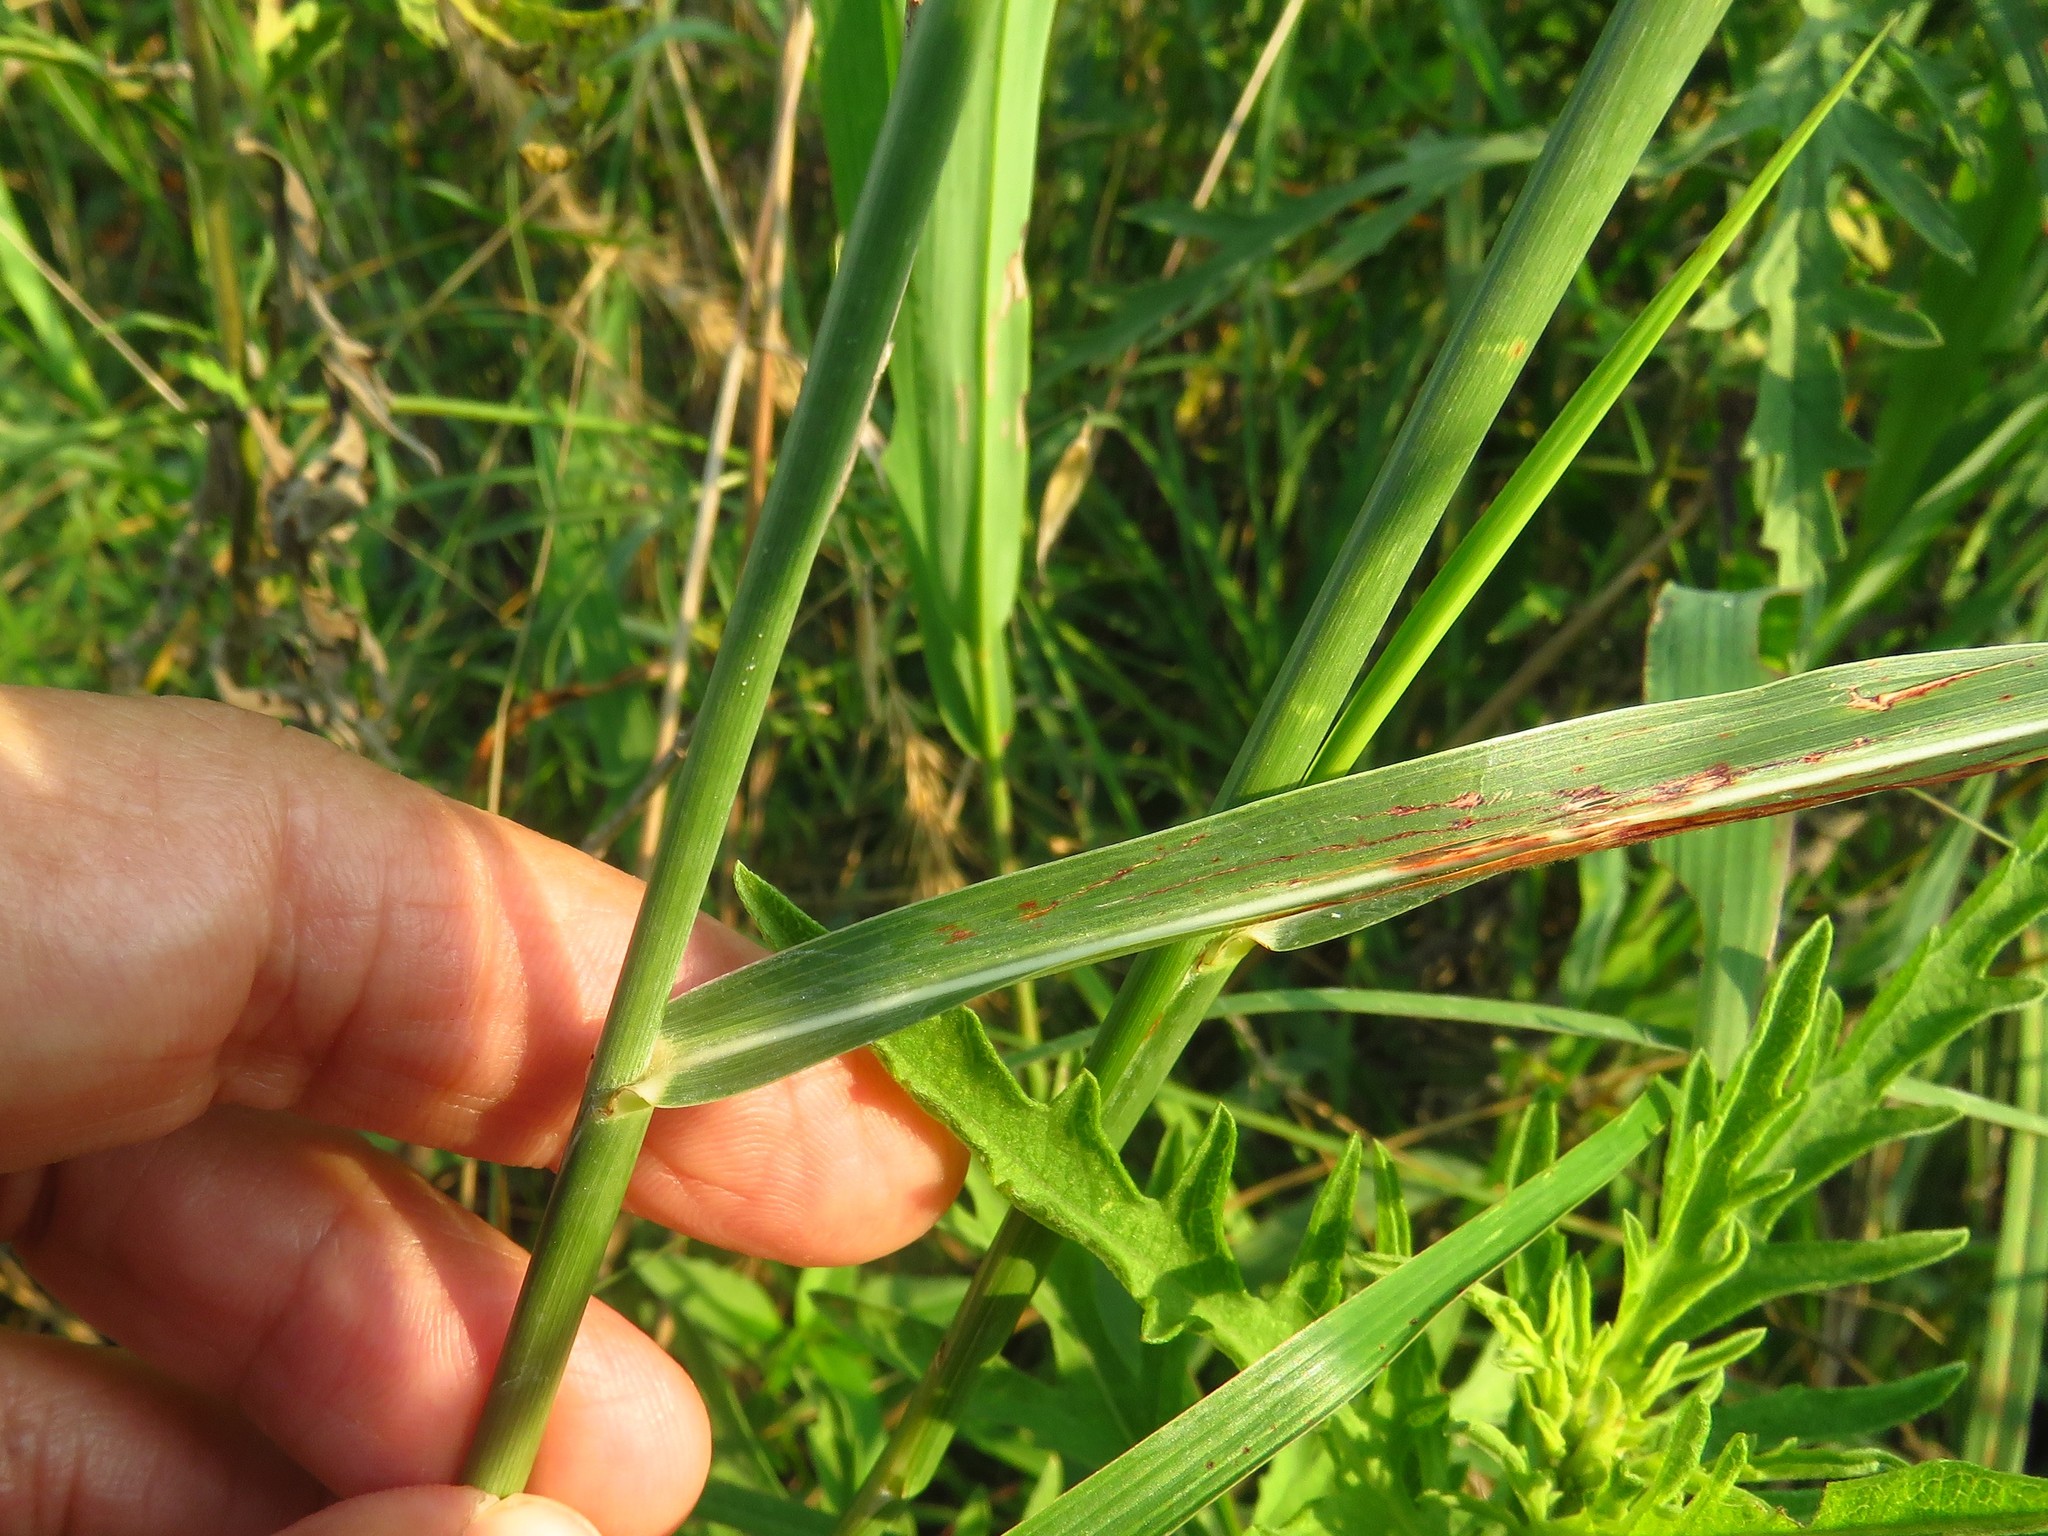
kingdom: Plantae
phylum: Tracheophyta
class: Liliopsida
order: Poales
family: Poaceae
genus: Sorghum
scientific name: Sorghum halepense
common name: Johnson-grass
